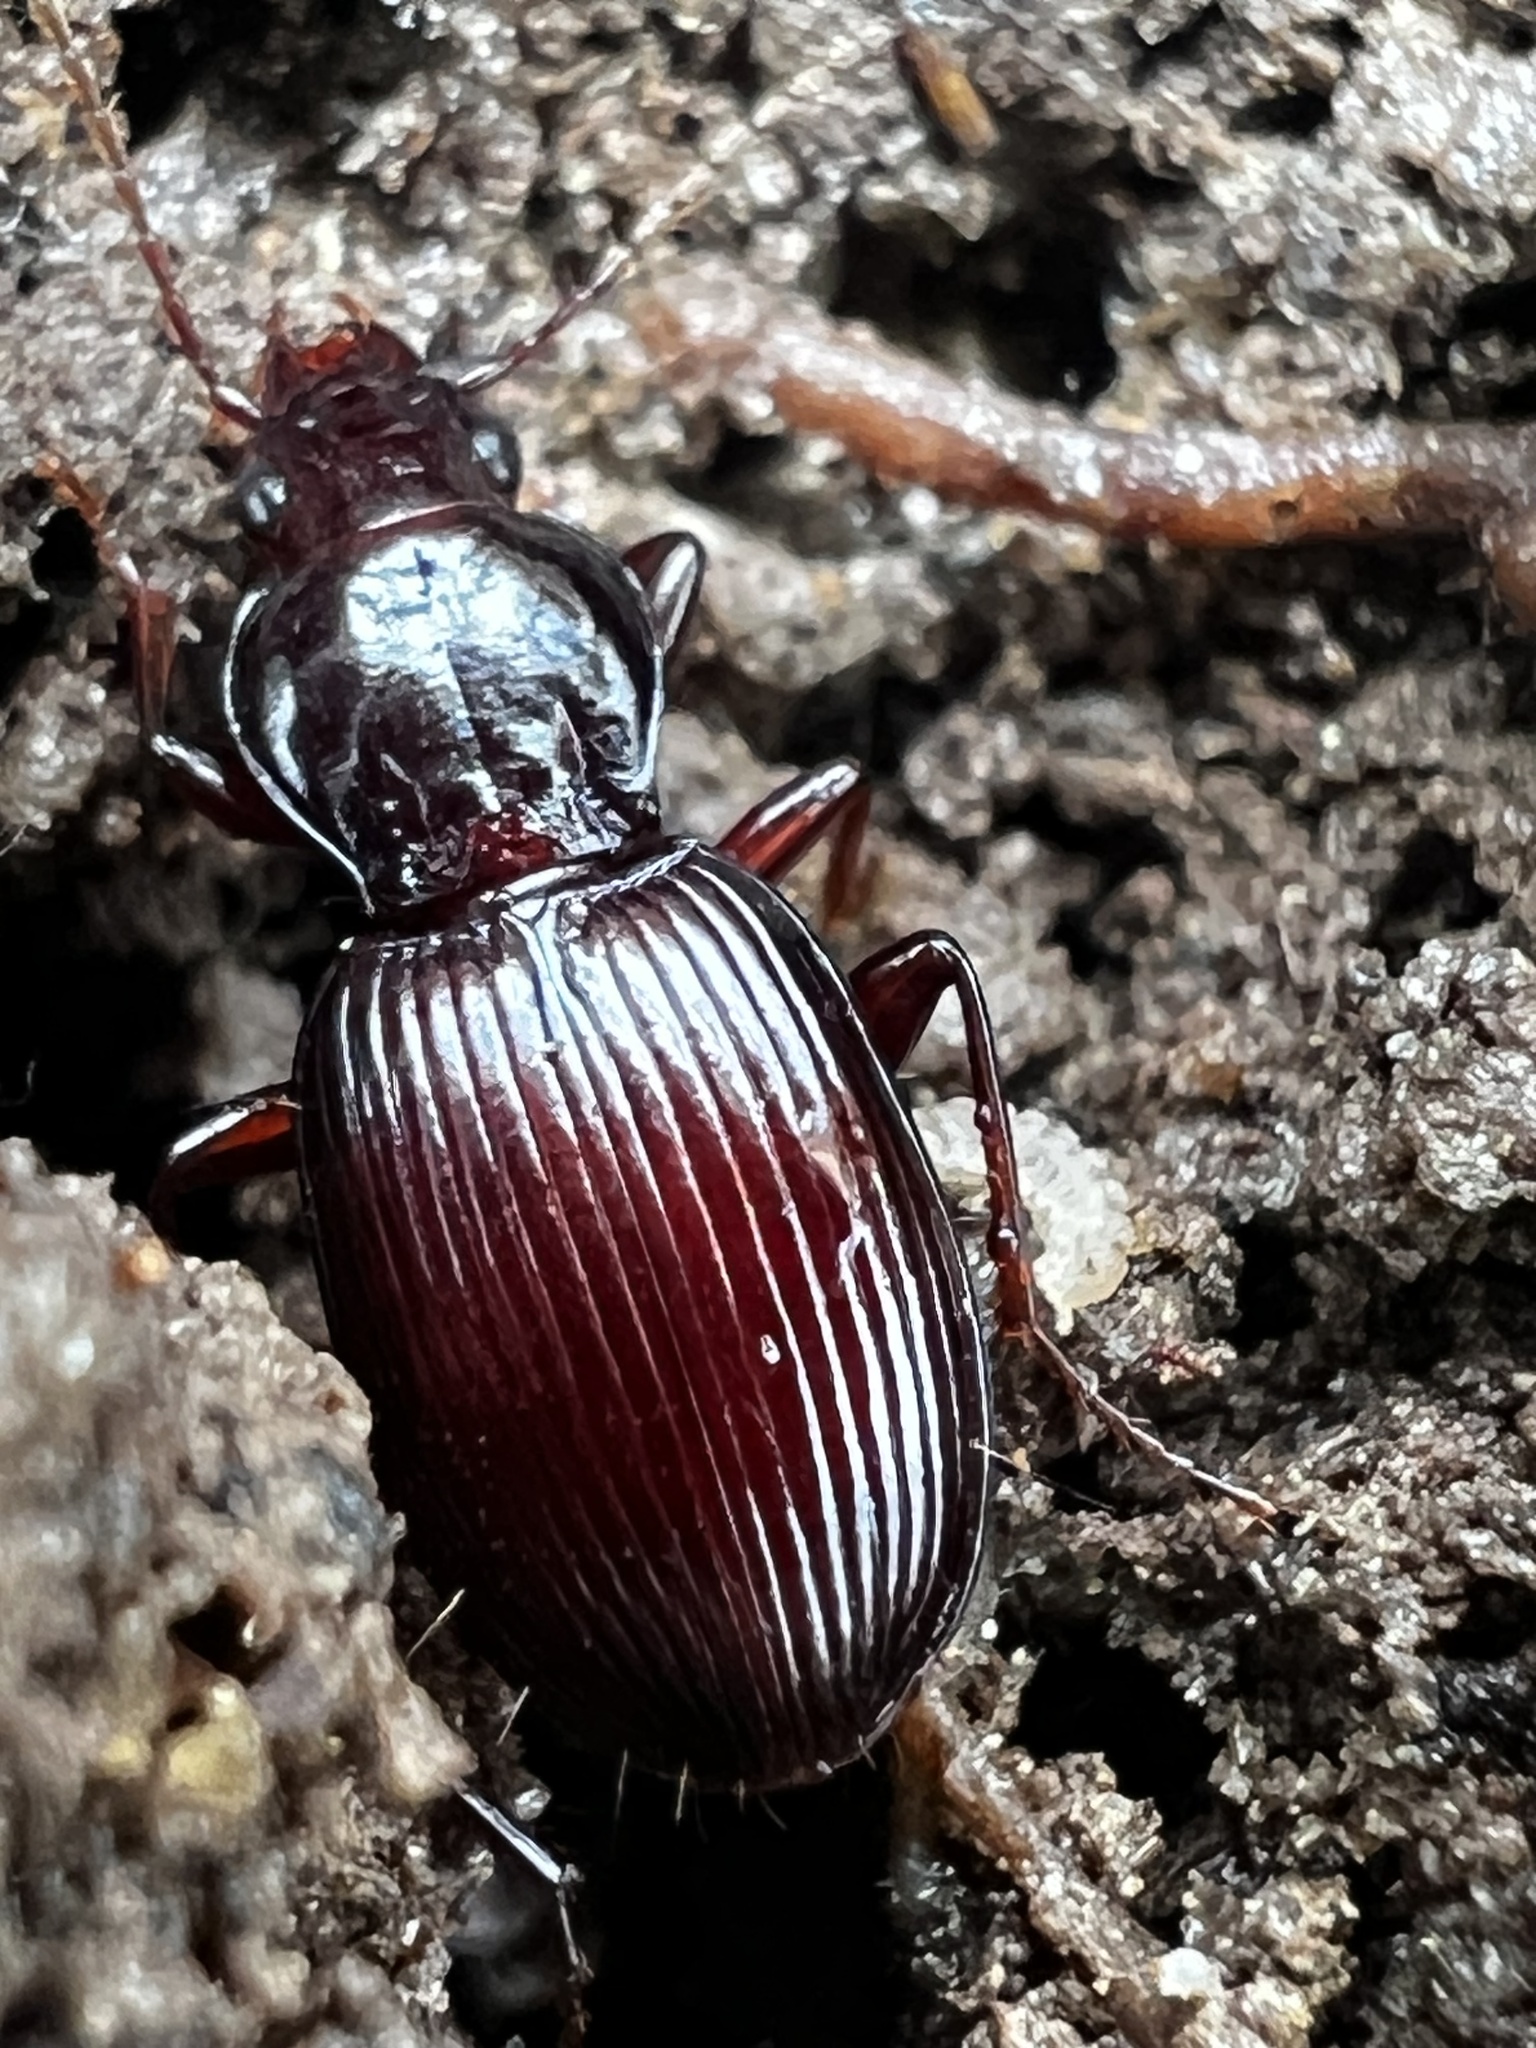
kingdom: Animalia
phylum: Arthropoda
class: Insecta
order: Coleoptera
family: Carabidae
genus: Gastrellarius
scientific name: Gastrellarius honestus
